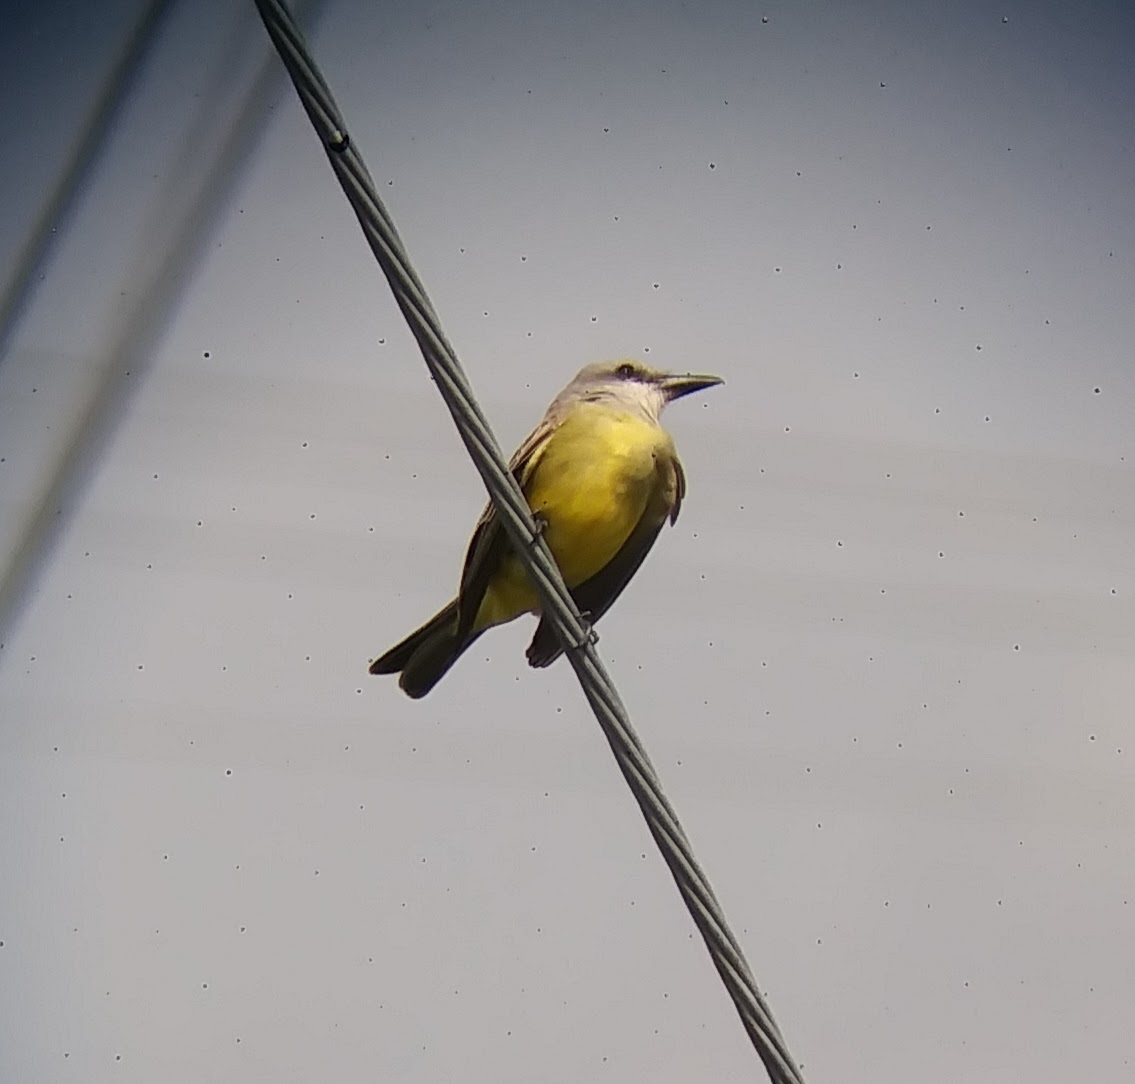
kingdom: Animalia
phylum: Chordata
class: Aves
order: Passeriformes
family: Tyrannidae
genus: Tyrannus
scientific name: Tyrannus melancholicus
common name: Tropical kingbird
